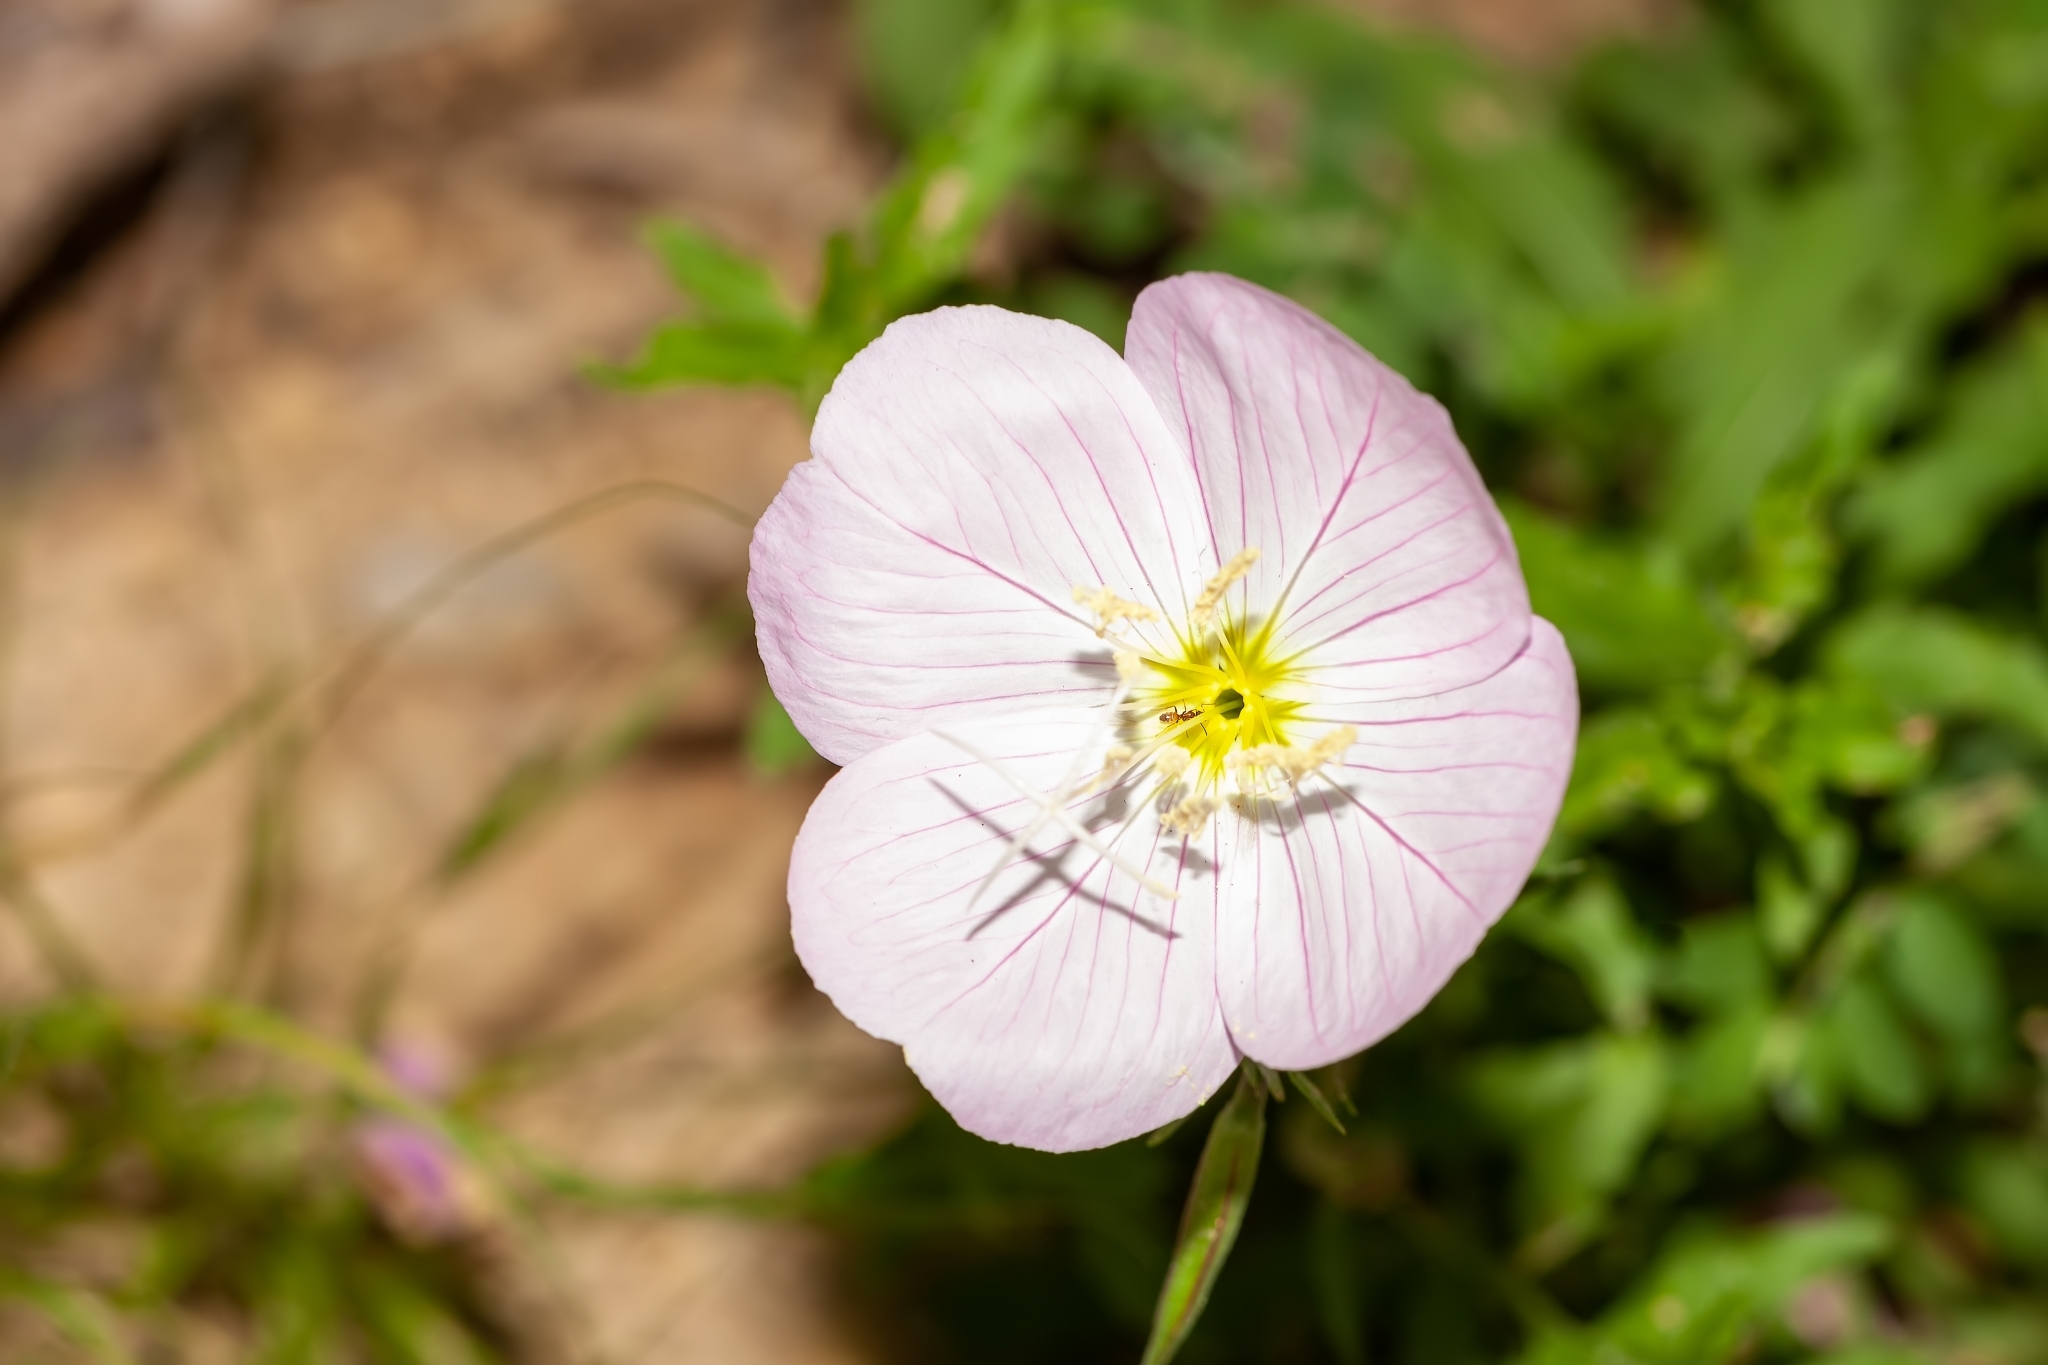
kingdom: Plantae
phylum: Tracheophyta
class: Magnoliopsida
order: Myrtales
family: Onagraceae
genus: Oenothera
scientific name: Oenothera speciosa
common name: White evening-primrose
